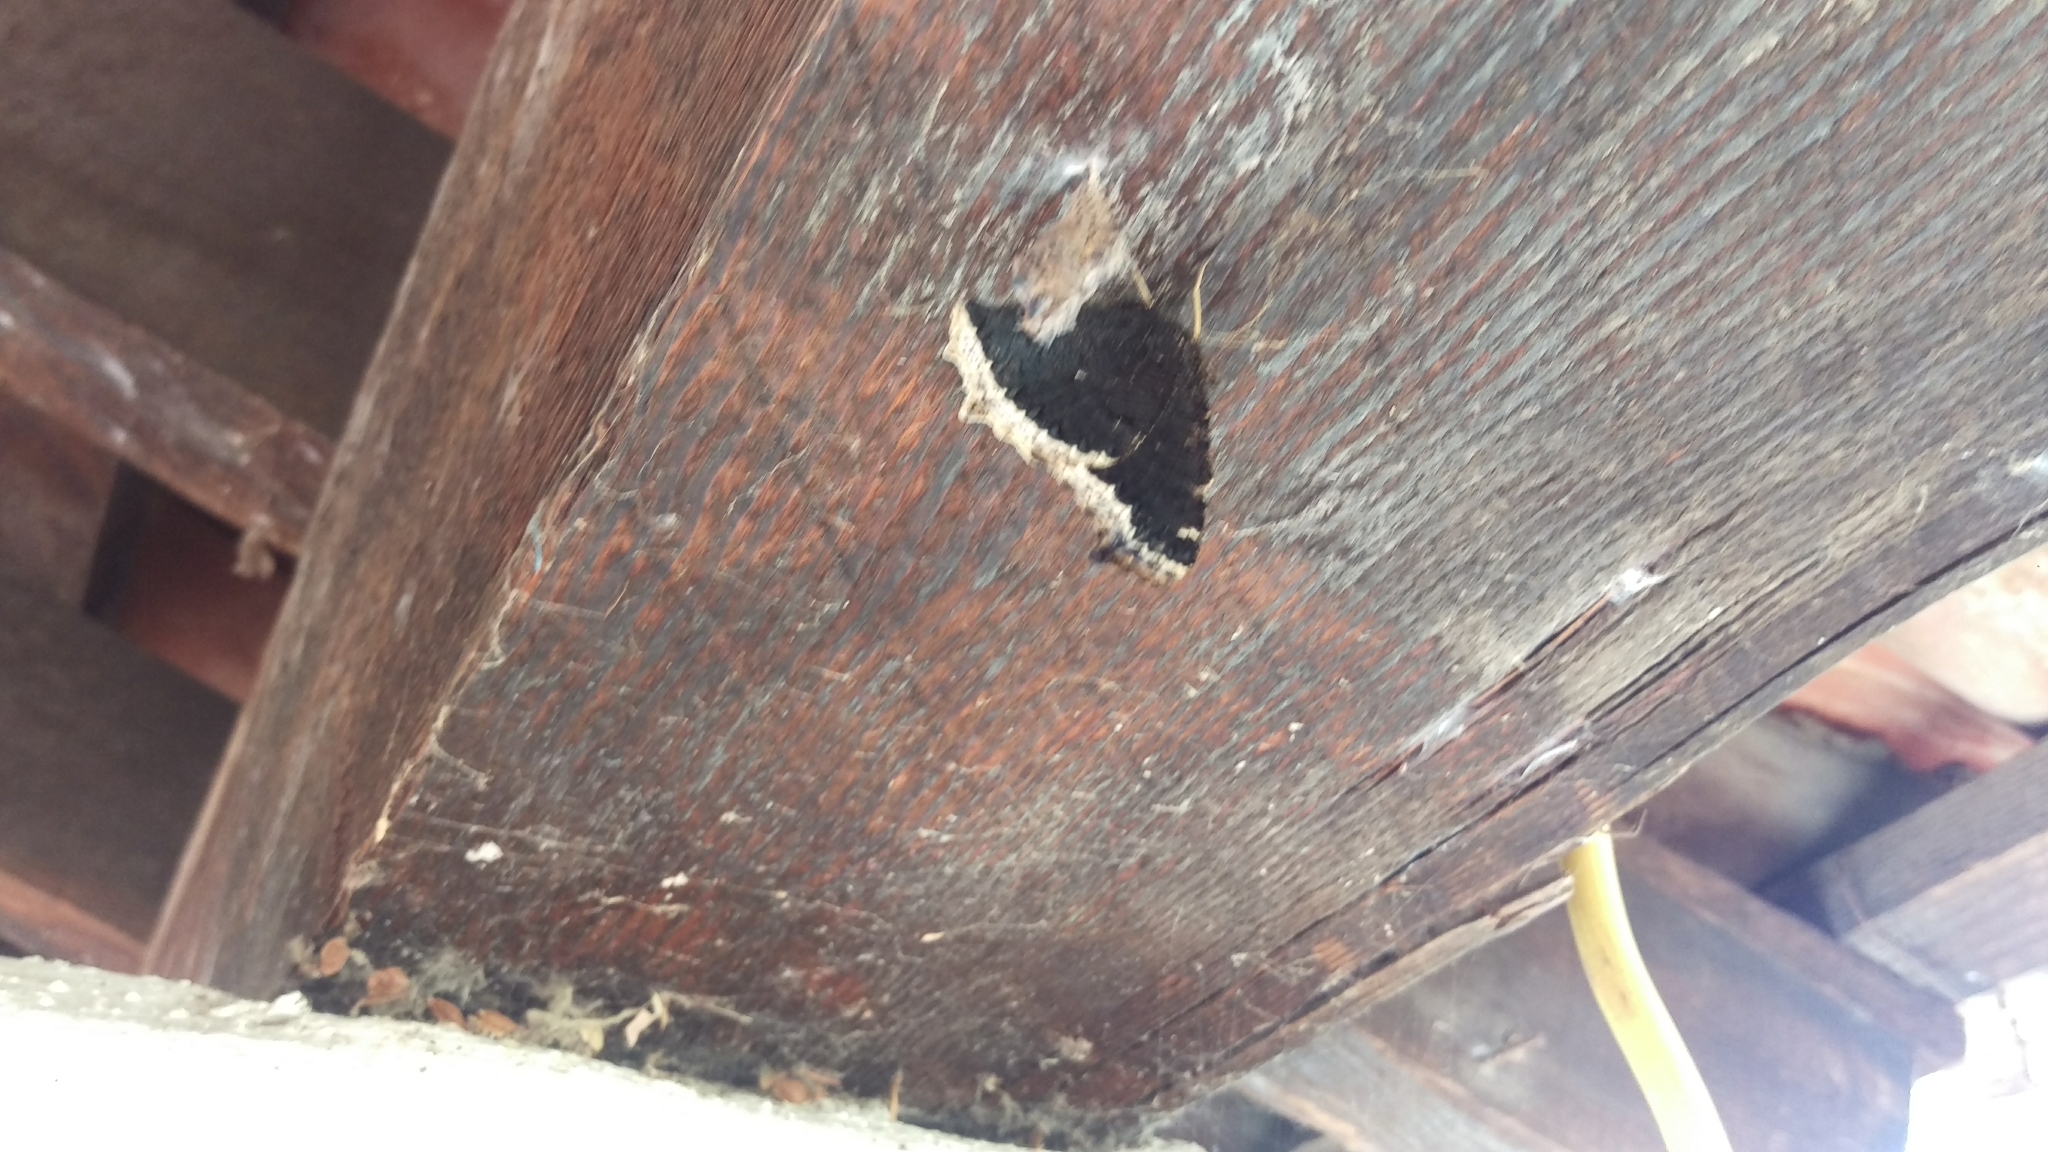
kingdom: Animalia
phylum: Arthropoda
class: Insecta
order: Lepidoptera
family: Nymphalidae
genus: Nymphalis
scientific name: Nymphalis antiopa
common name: Camberwell beauty
